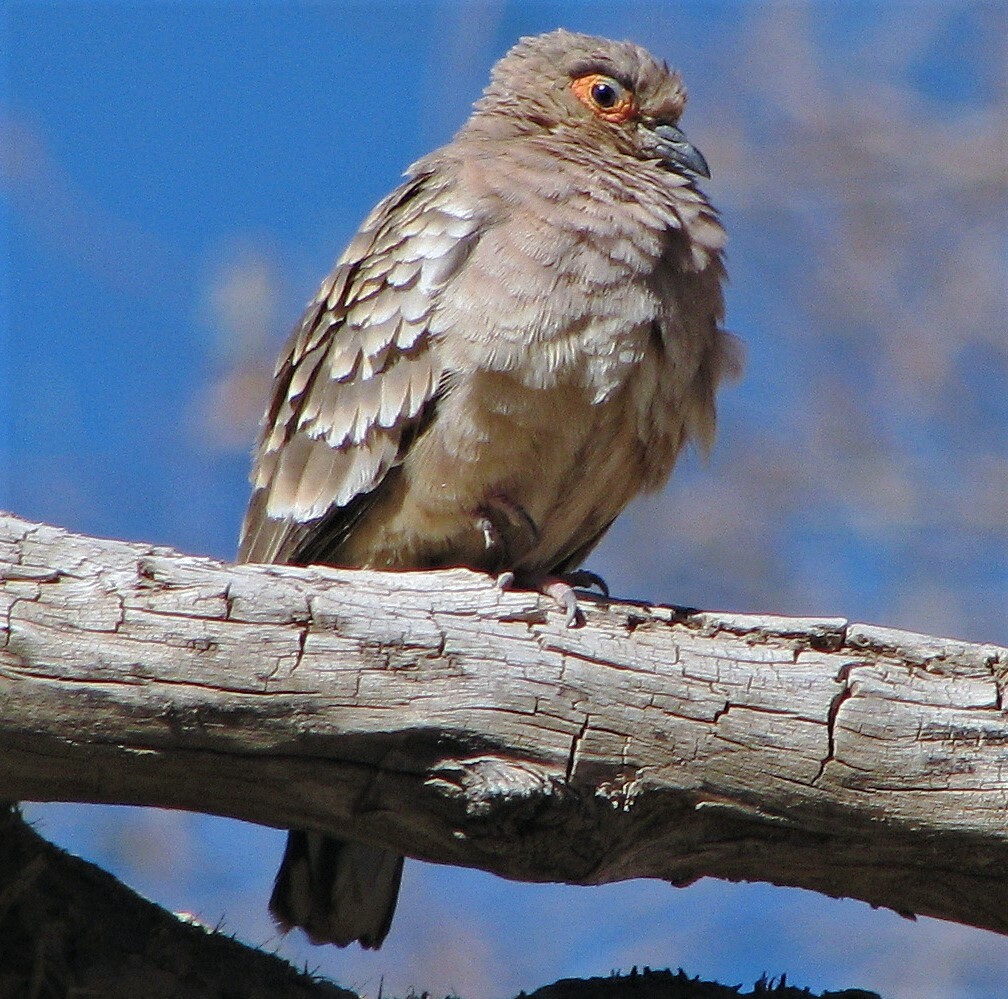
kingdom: Animalia
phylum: Chordata
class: Aves
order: Columbiformes
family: Columbidae
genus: Metriopelia
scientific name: Metriopelia ceciliae
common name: Bare-faced ground dove
